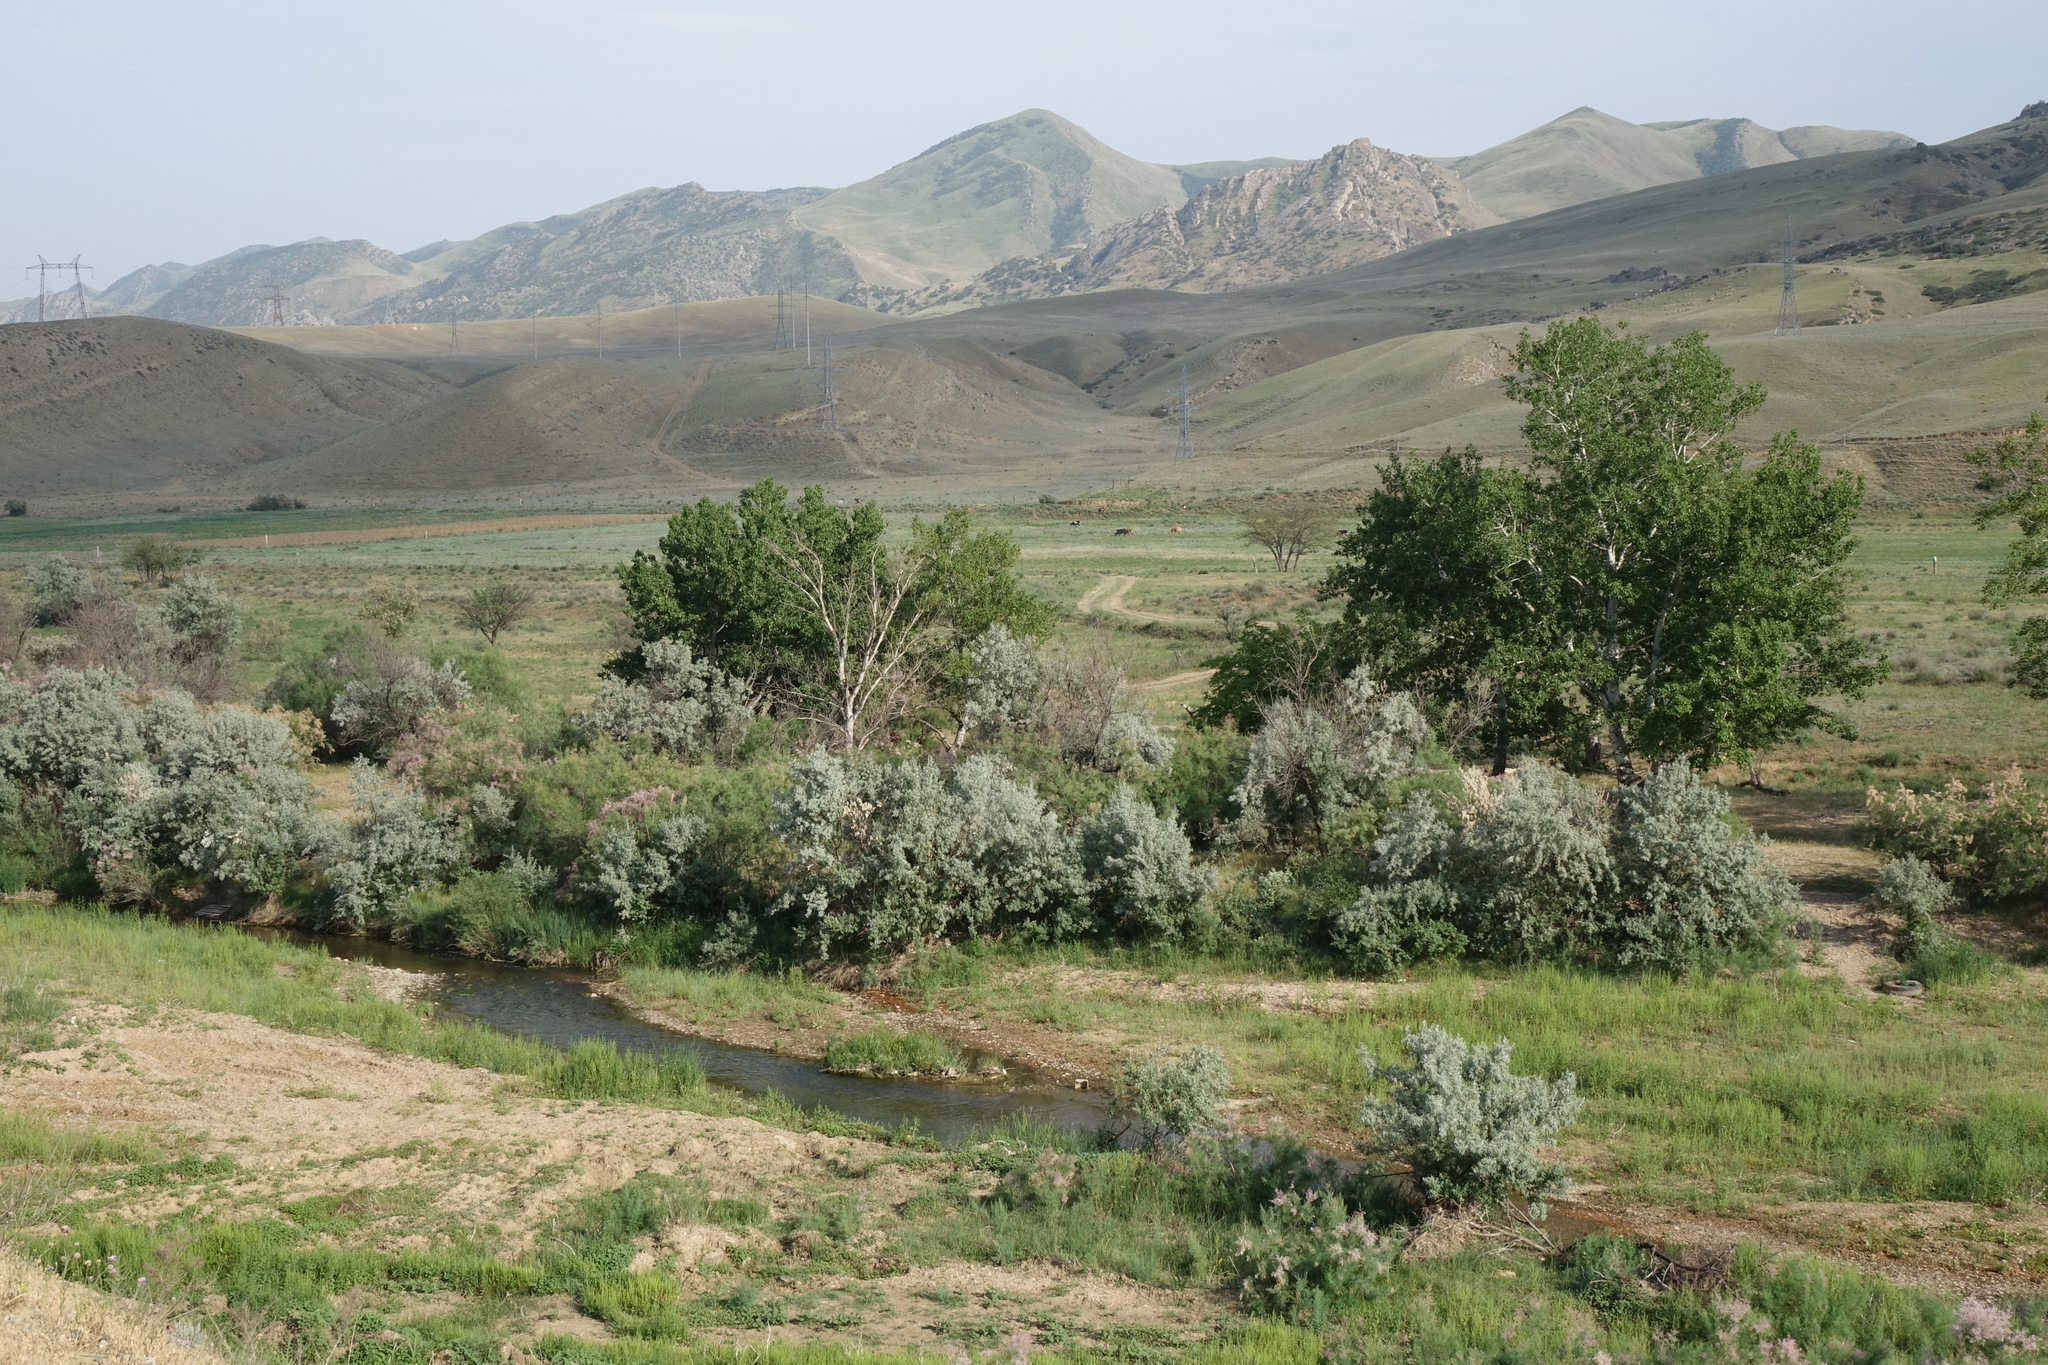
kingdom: Plantae
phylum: Tracheophyta
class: Magnoliopsida
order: Rosales
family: Elaeagnaceae
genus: Elaeagnus
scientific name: Elaeagnus angustifolia
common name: Russian olive
